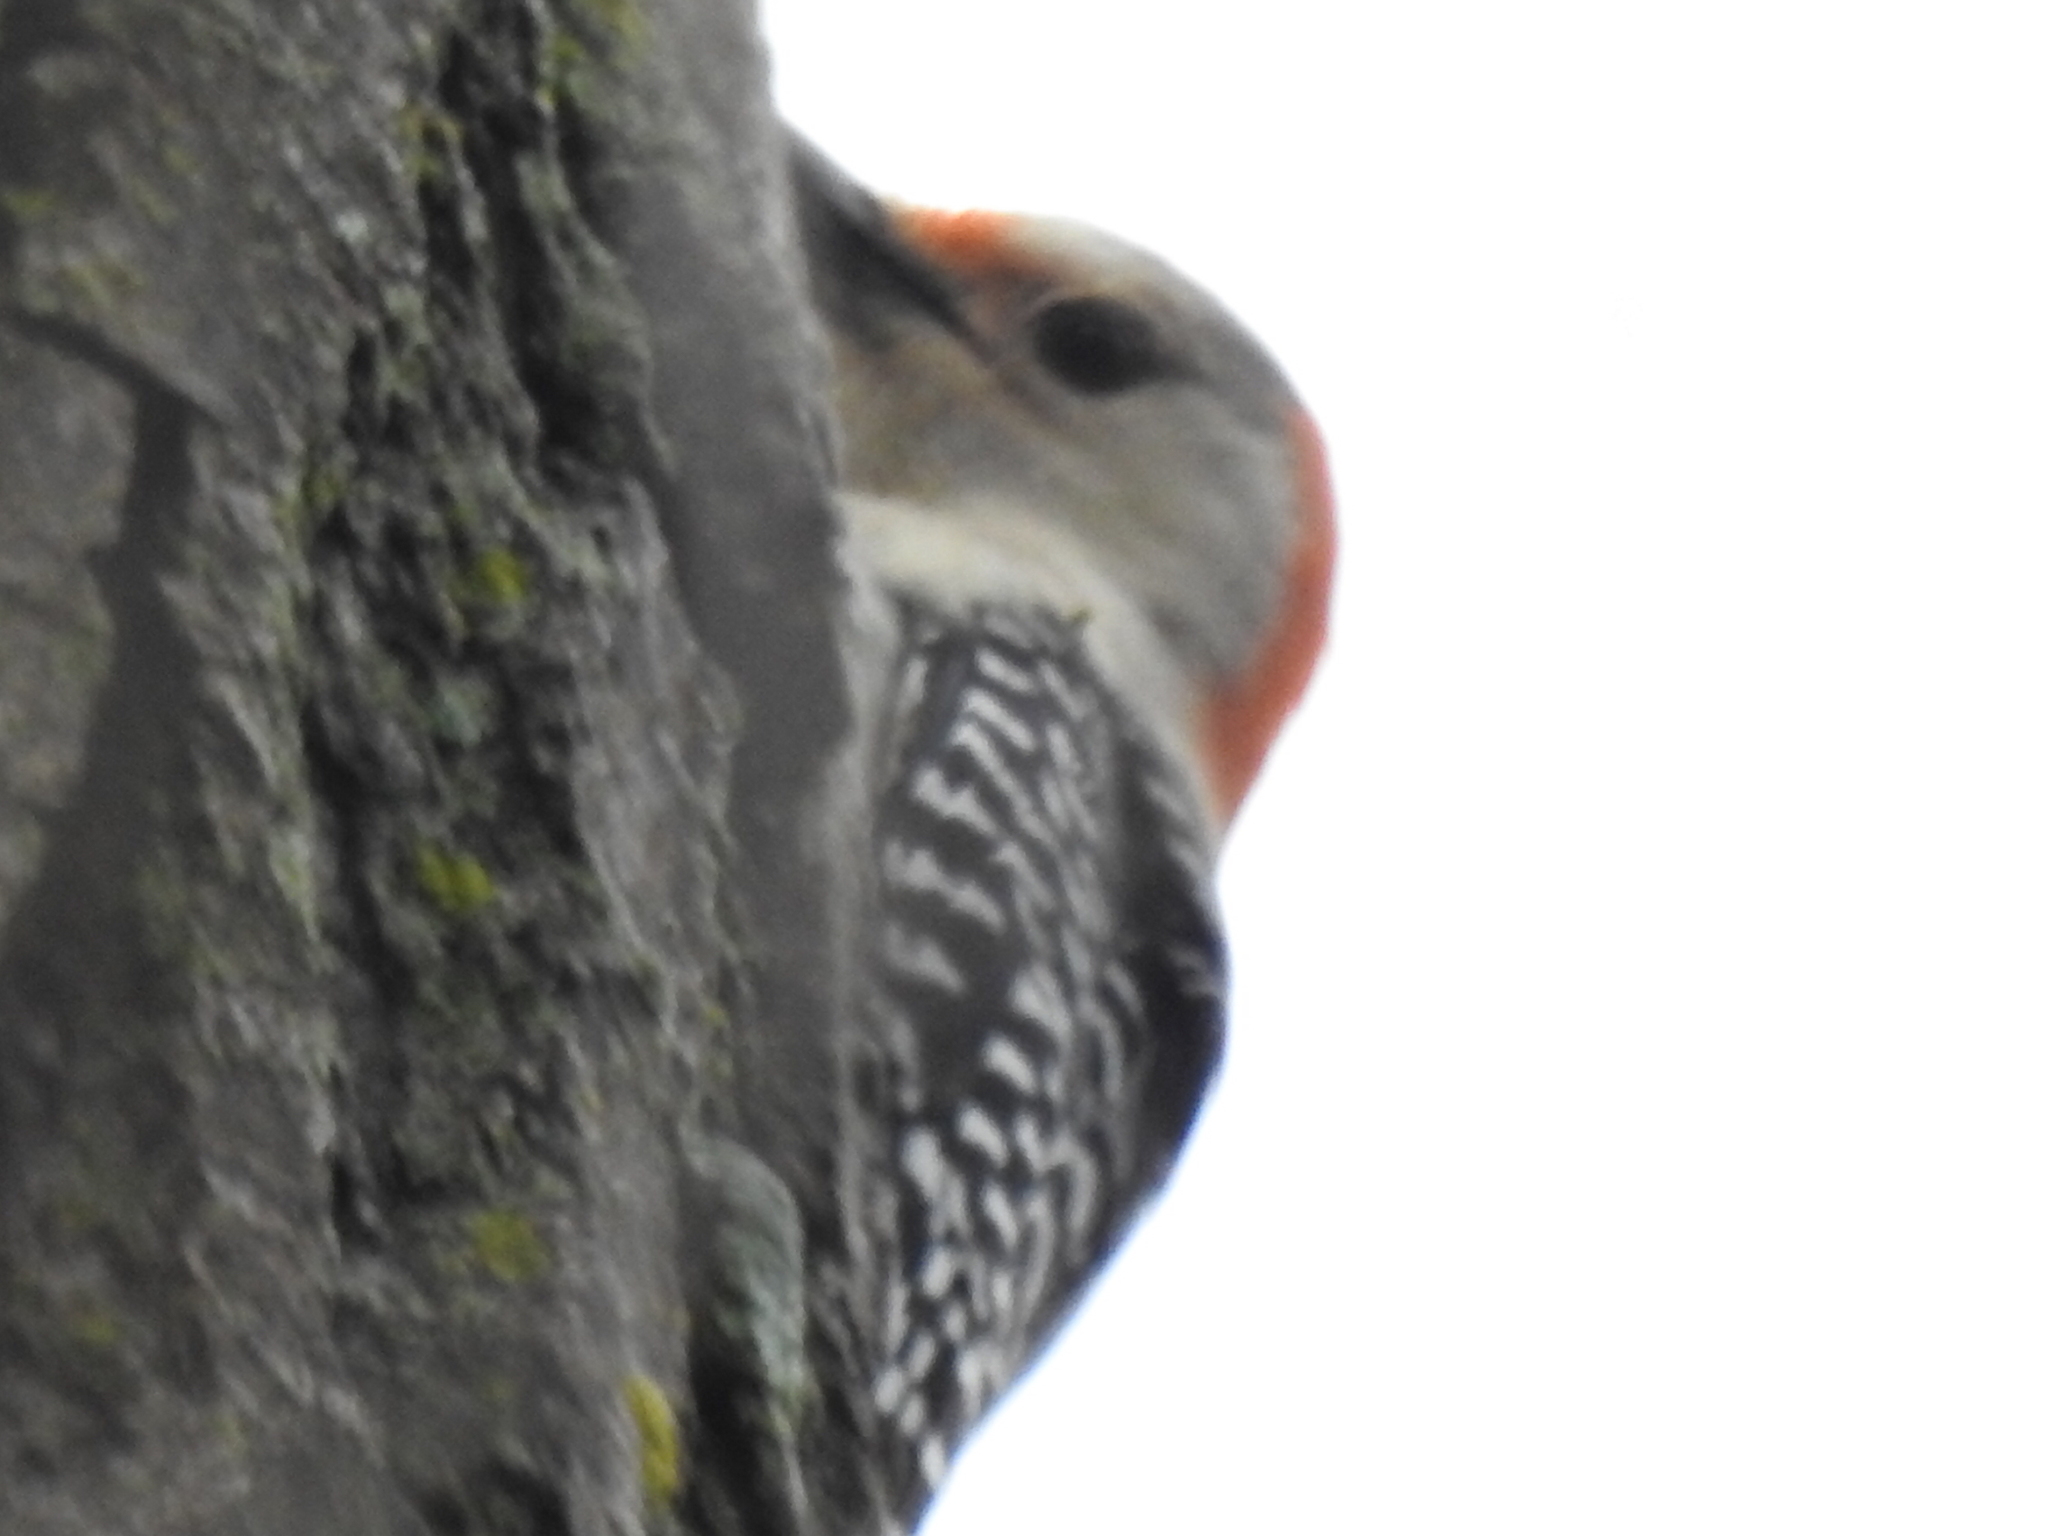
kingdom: Animalia
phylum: Chordata
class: Aves
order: Piciformes
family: Picidae
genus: Melanerpes
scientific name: Melanerpes carolinus
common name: Red-bellied woodpecker
